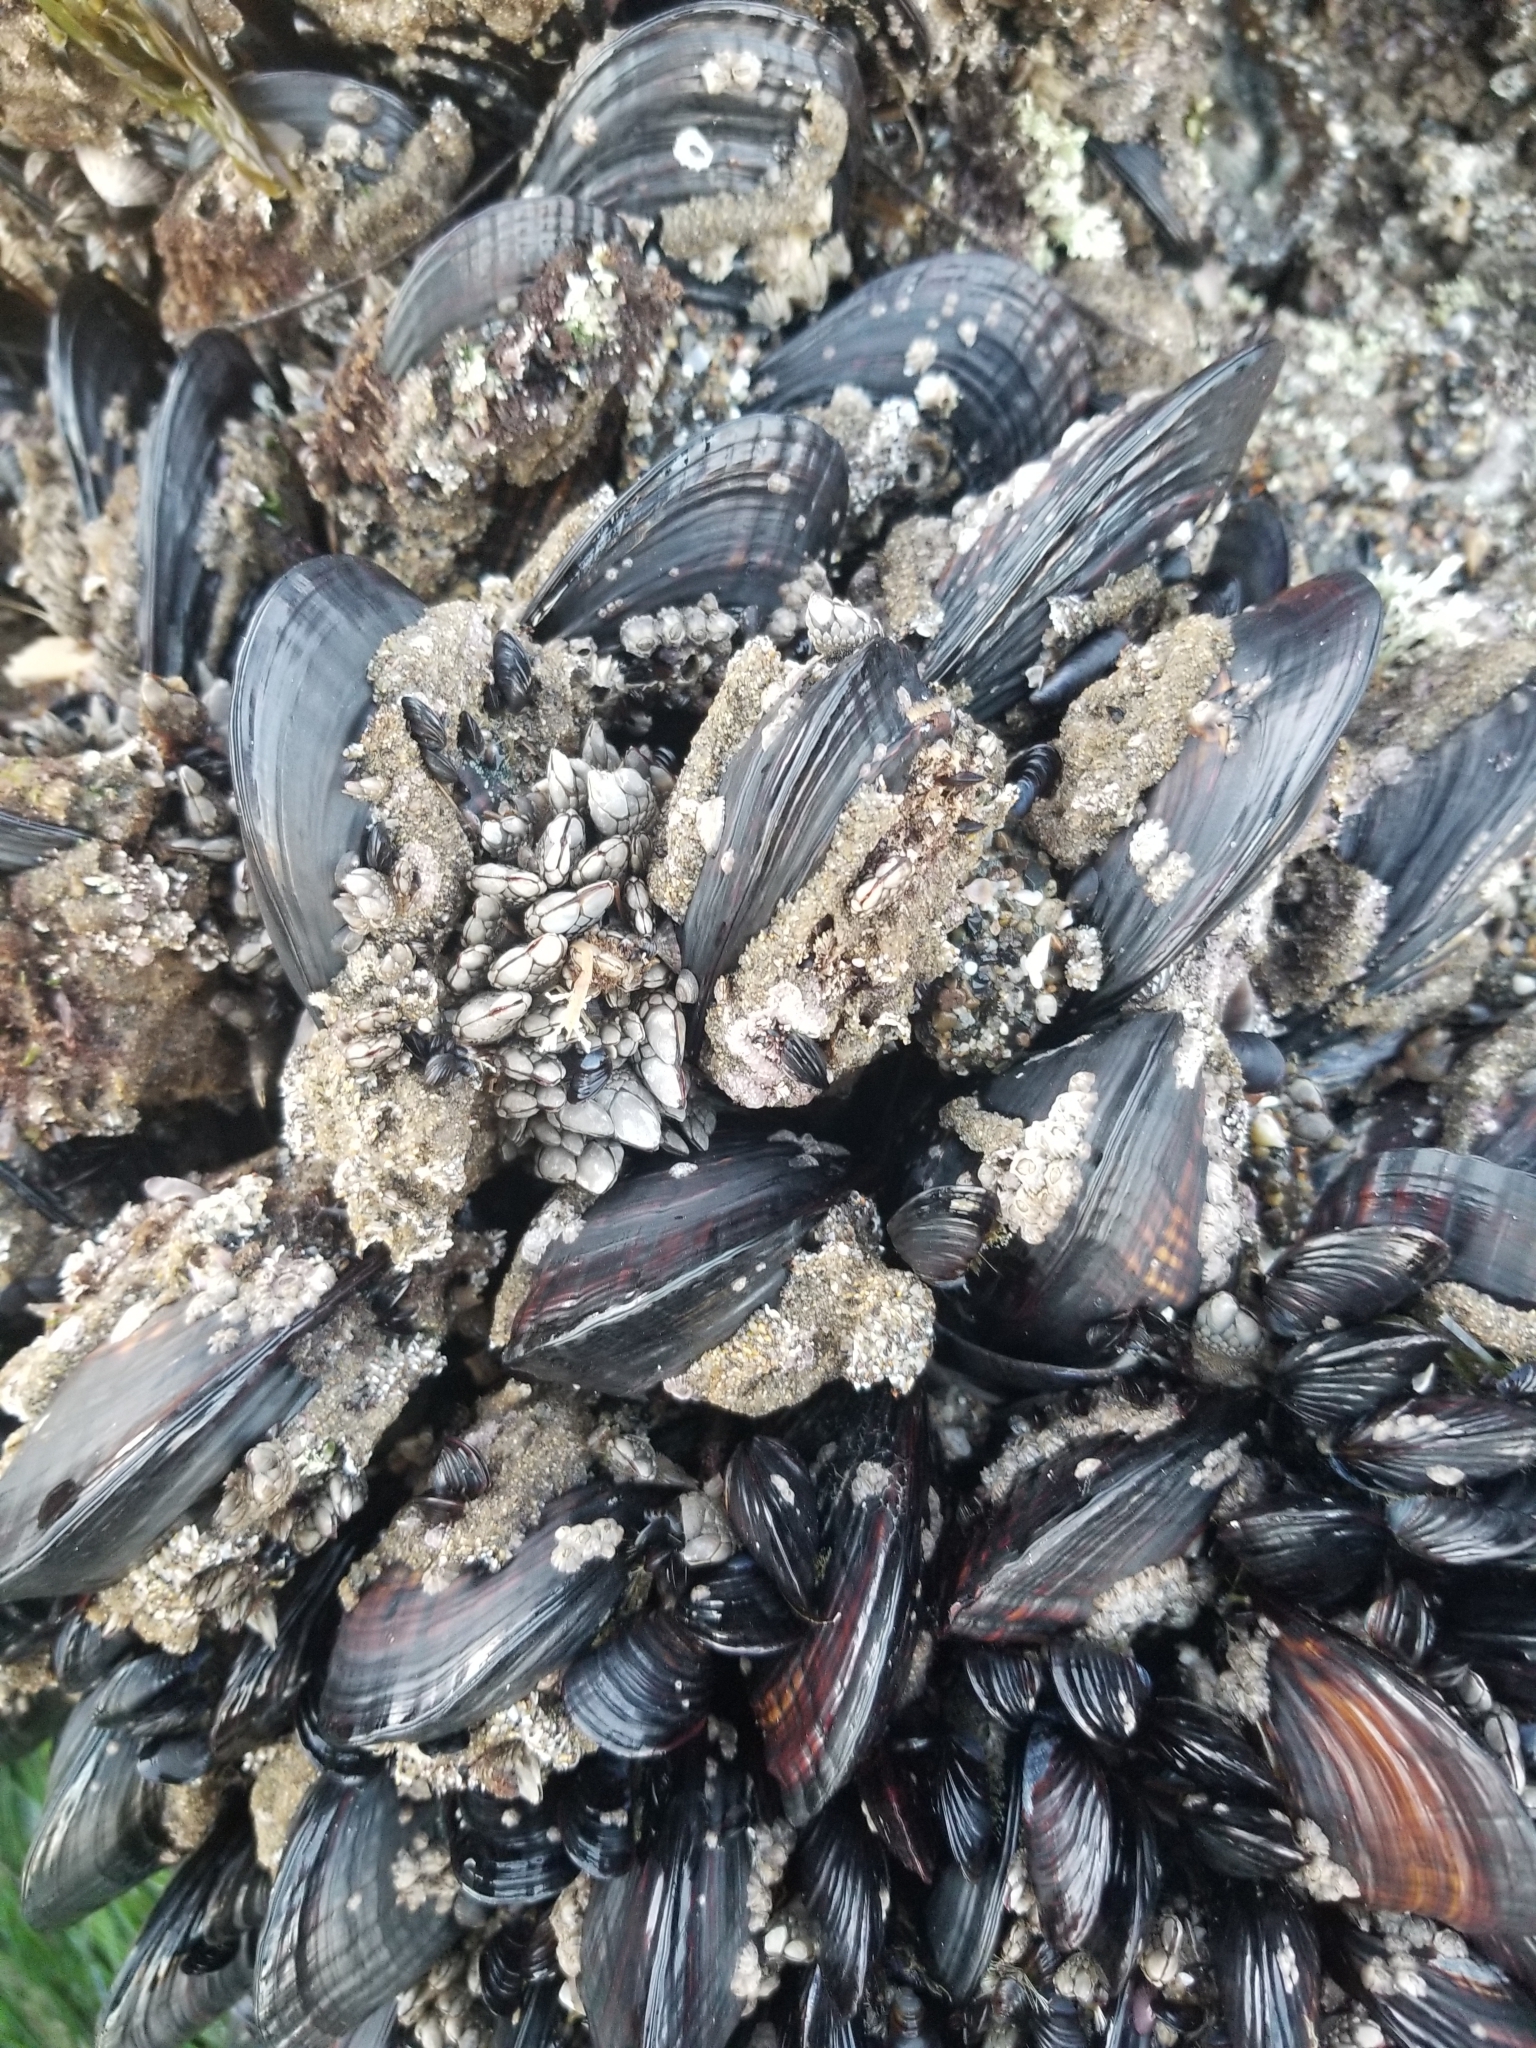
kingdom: Animalia
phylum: Mollusca
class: Bivalvia
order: Mytilida
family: Mytilidae
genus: Mytilus
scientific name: Mytilus californianus
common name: California mussel
